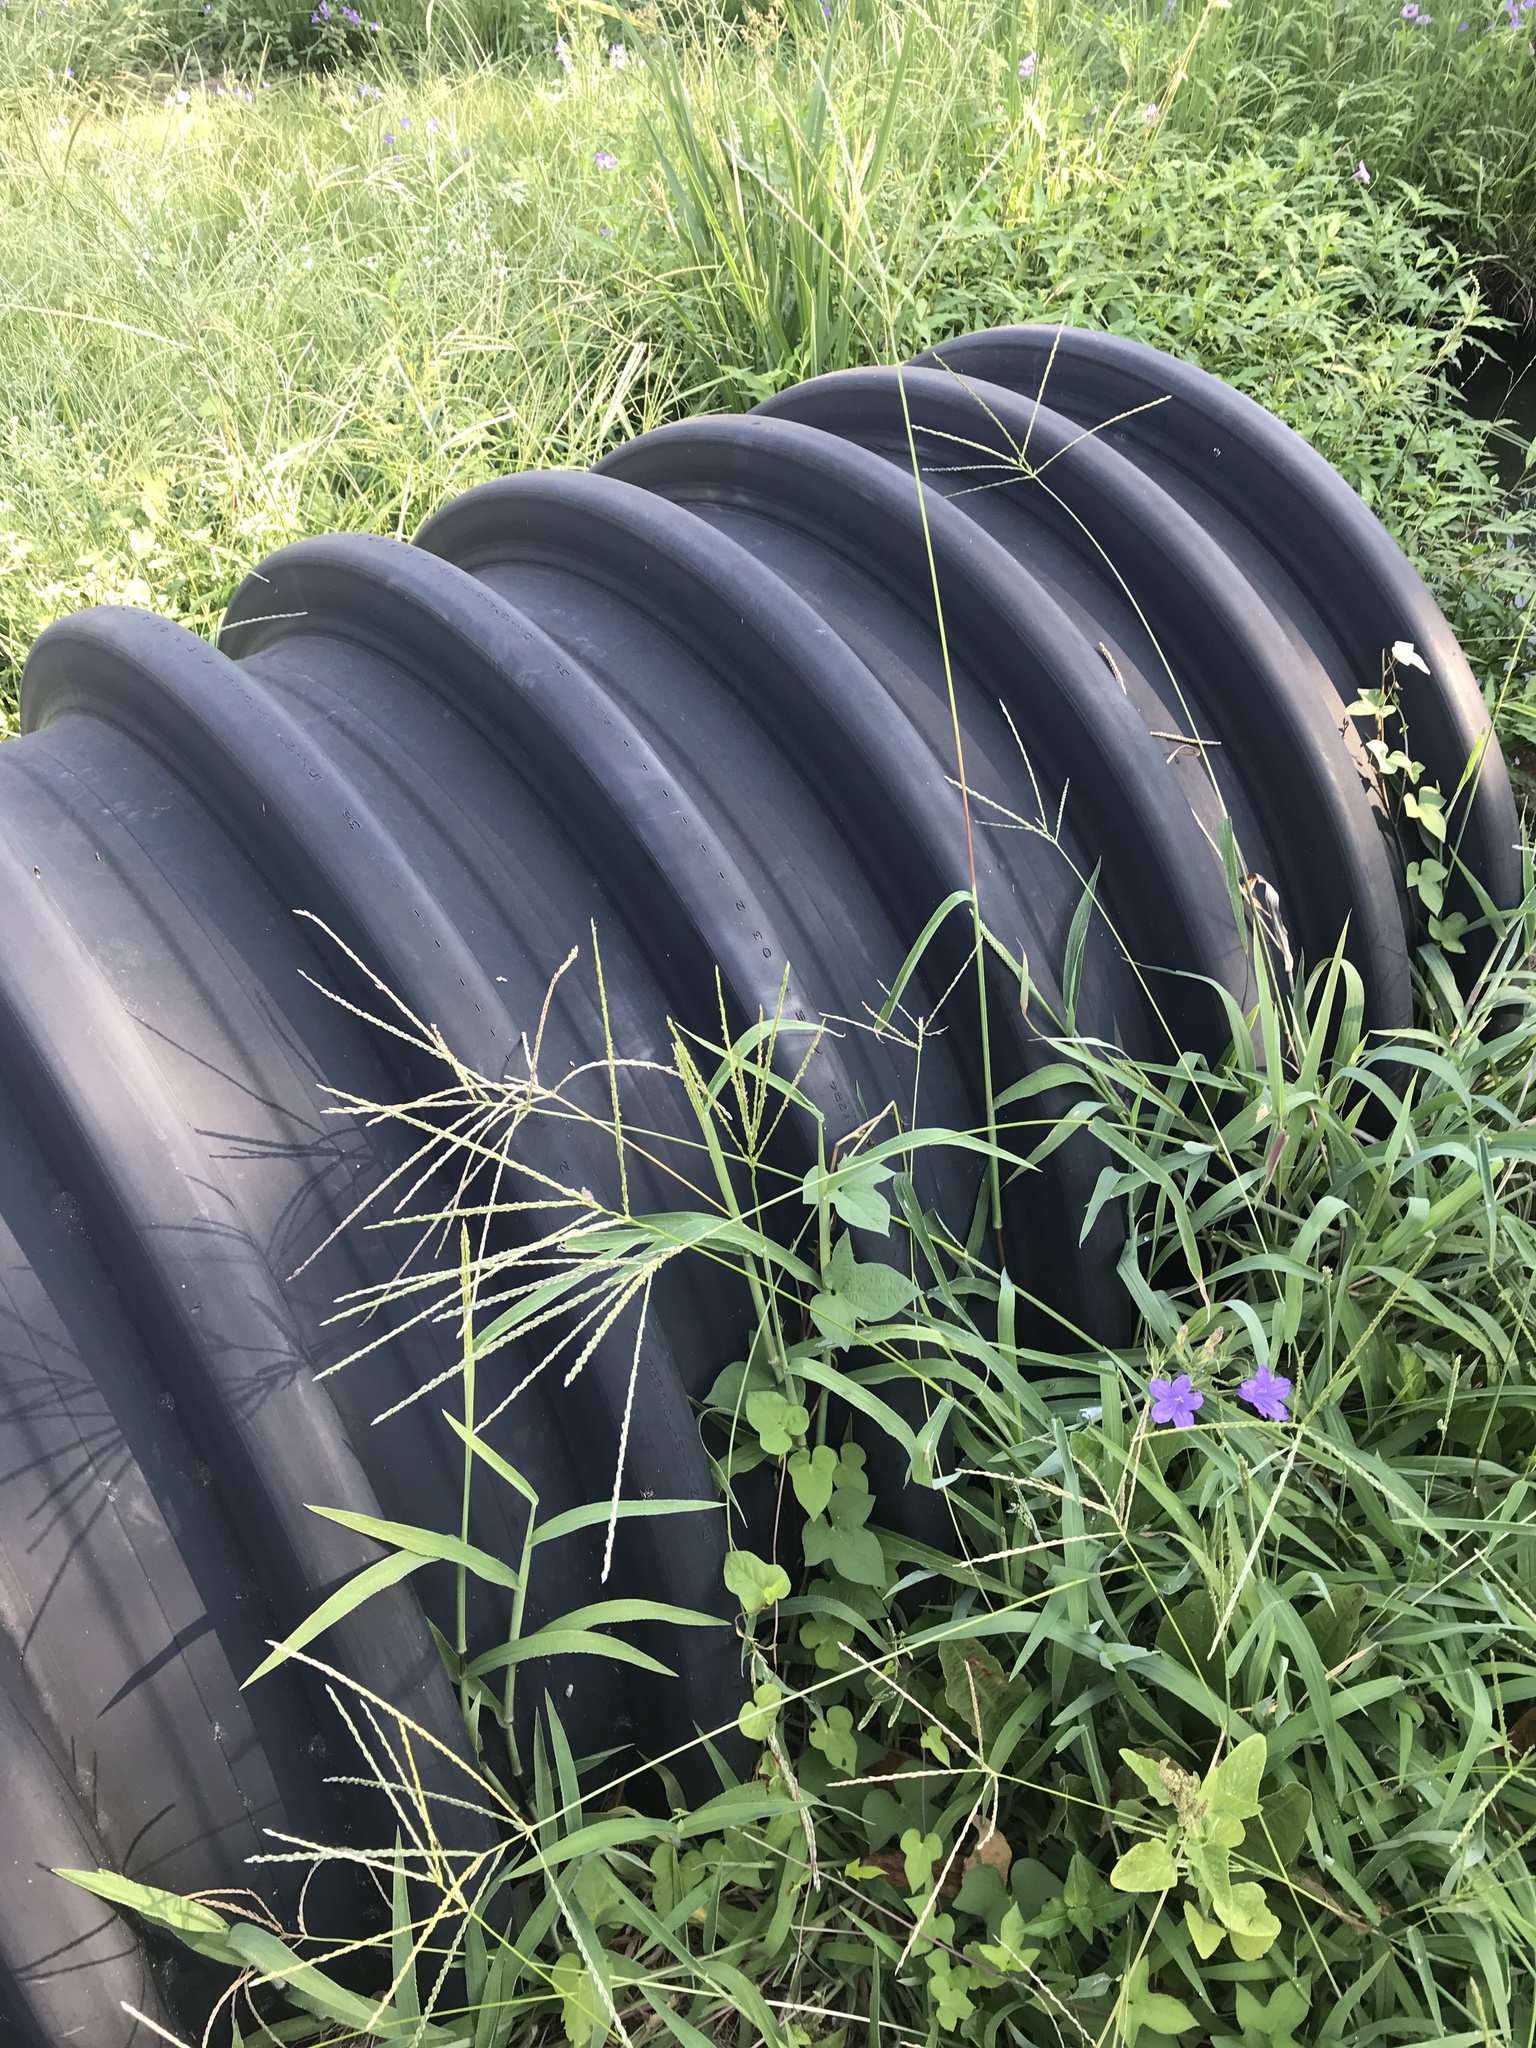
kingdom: Plantae
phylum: Tracheophyta
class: Liliopsida
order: Poales
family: Poaceae
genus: Digitaria
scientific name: Digitaria ciliaris
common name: Tropical finger-grass
